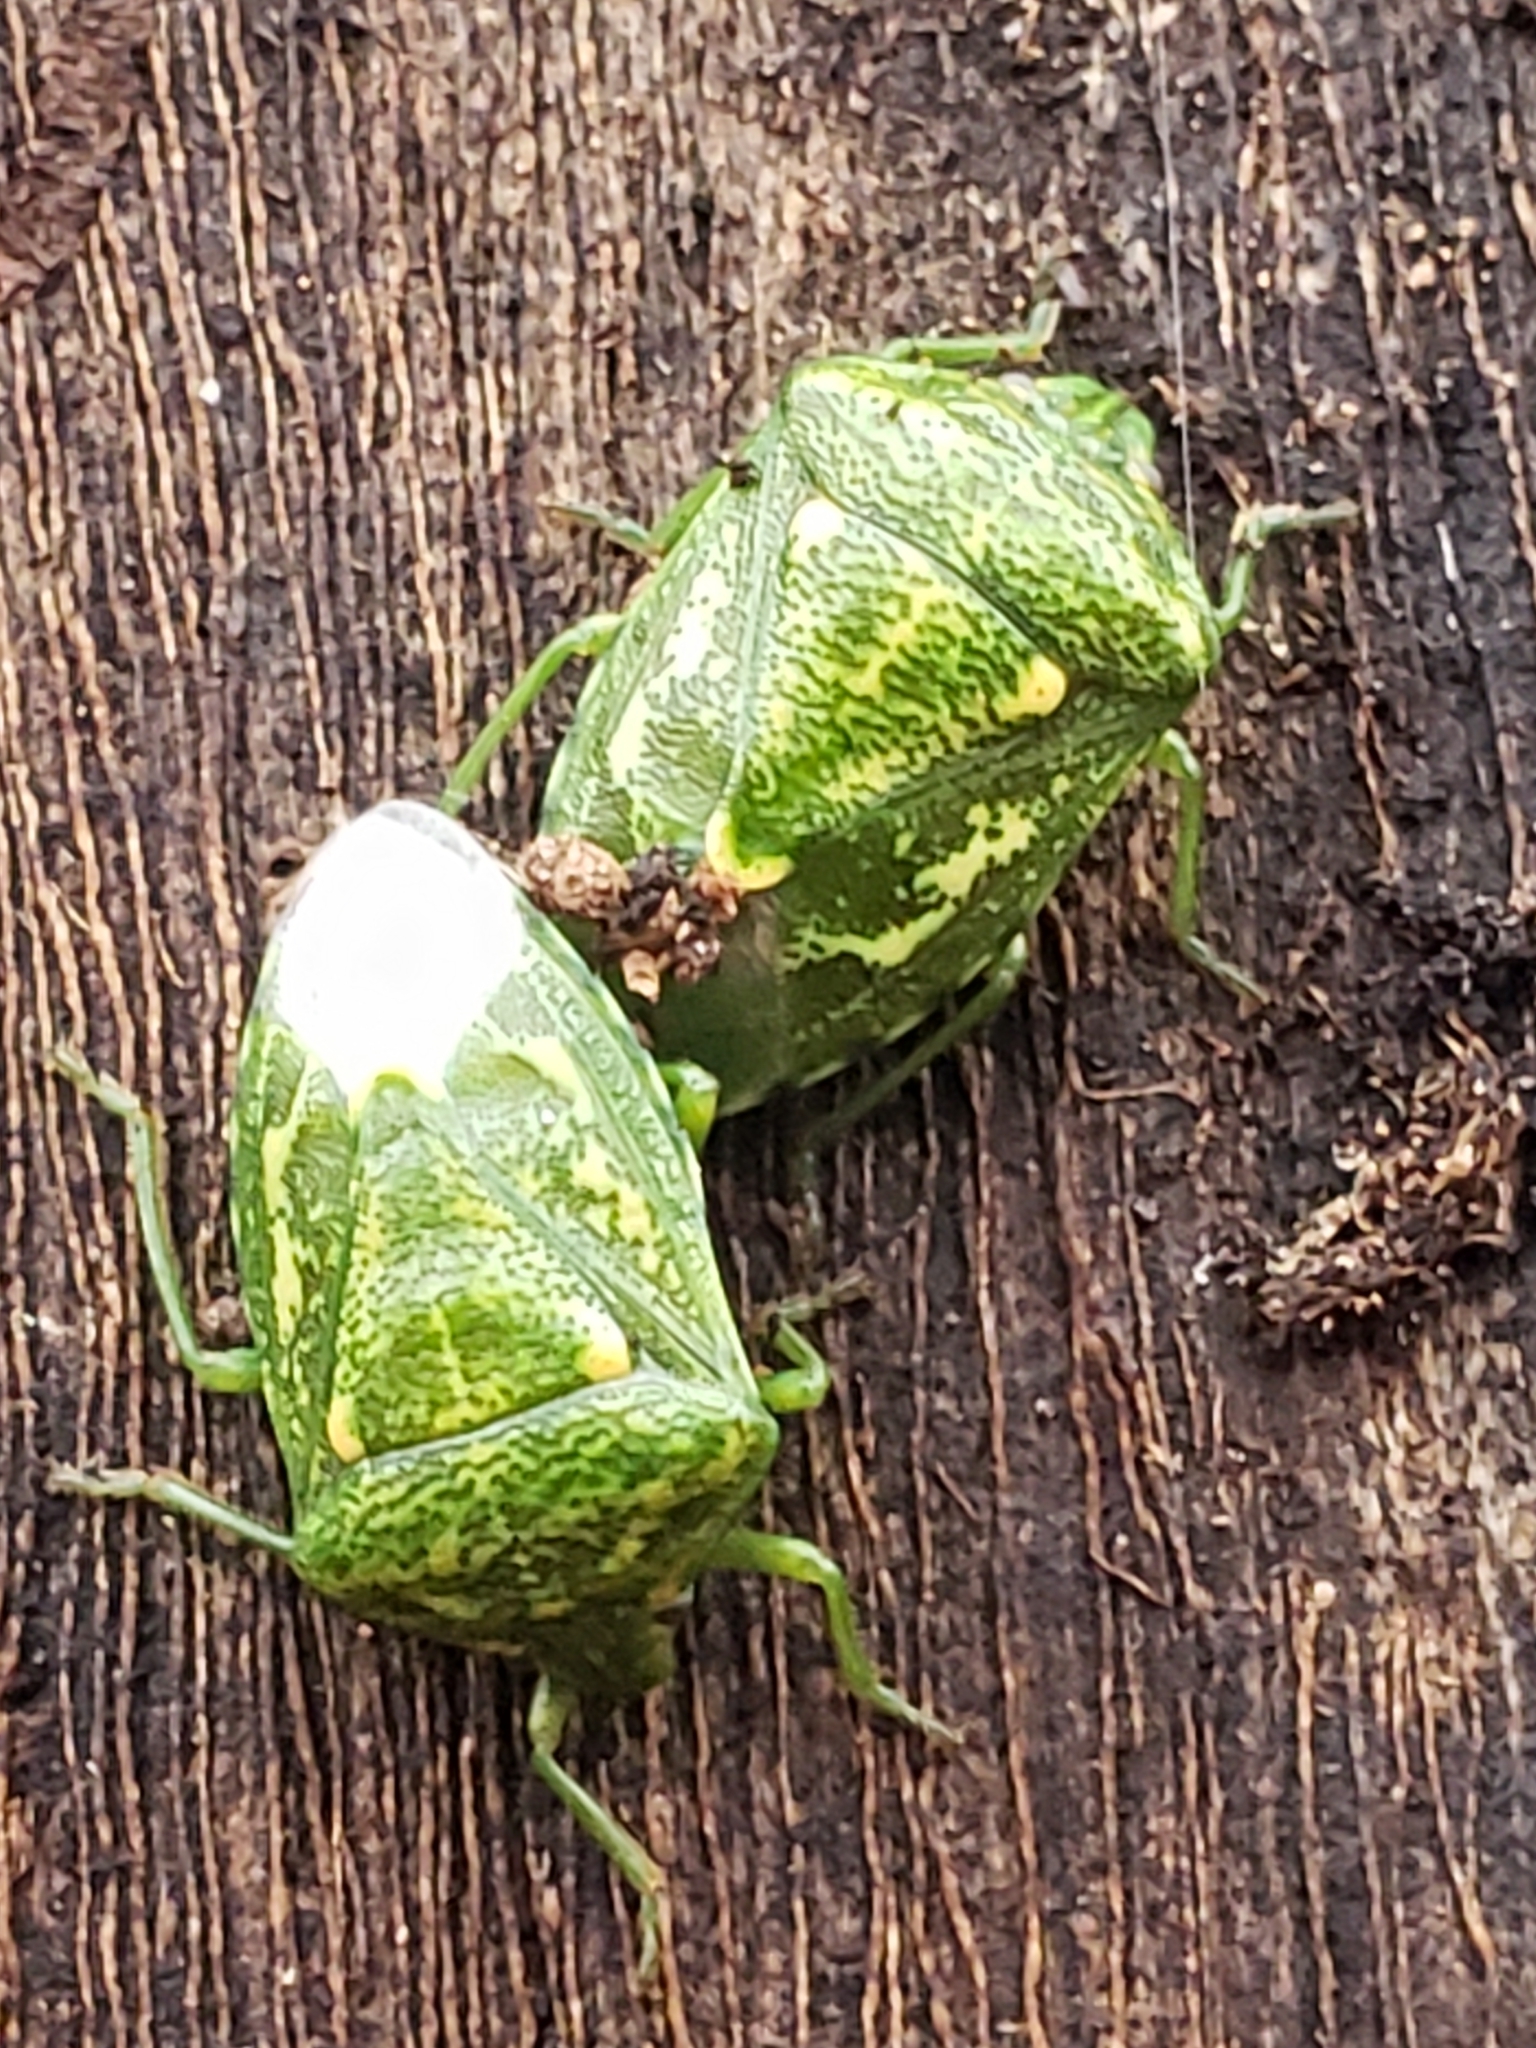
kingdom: Animalia
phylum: Arthropoda
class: Insecta
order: Hemiptera
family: Pentatomidae
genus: Banasa
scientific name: Banasa euchlora
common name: Cedar berry bug
